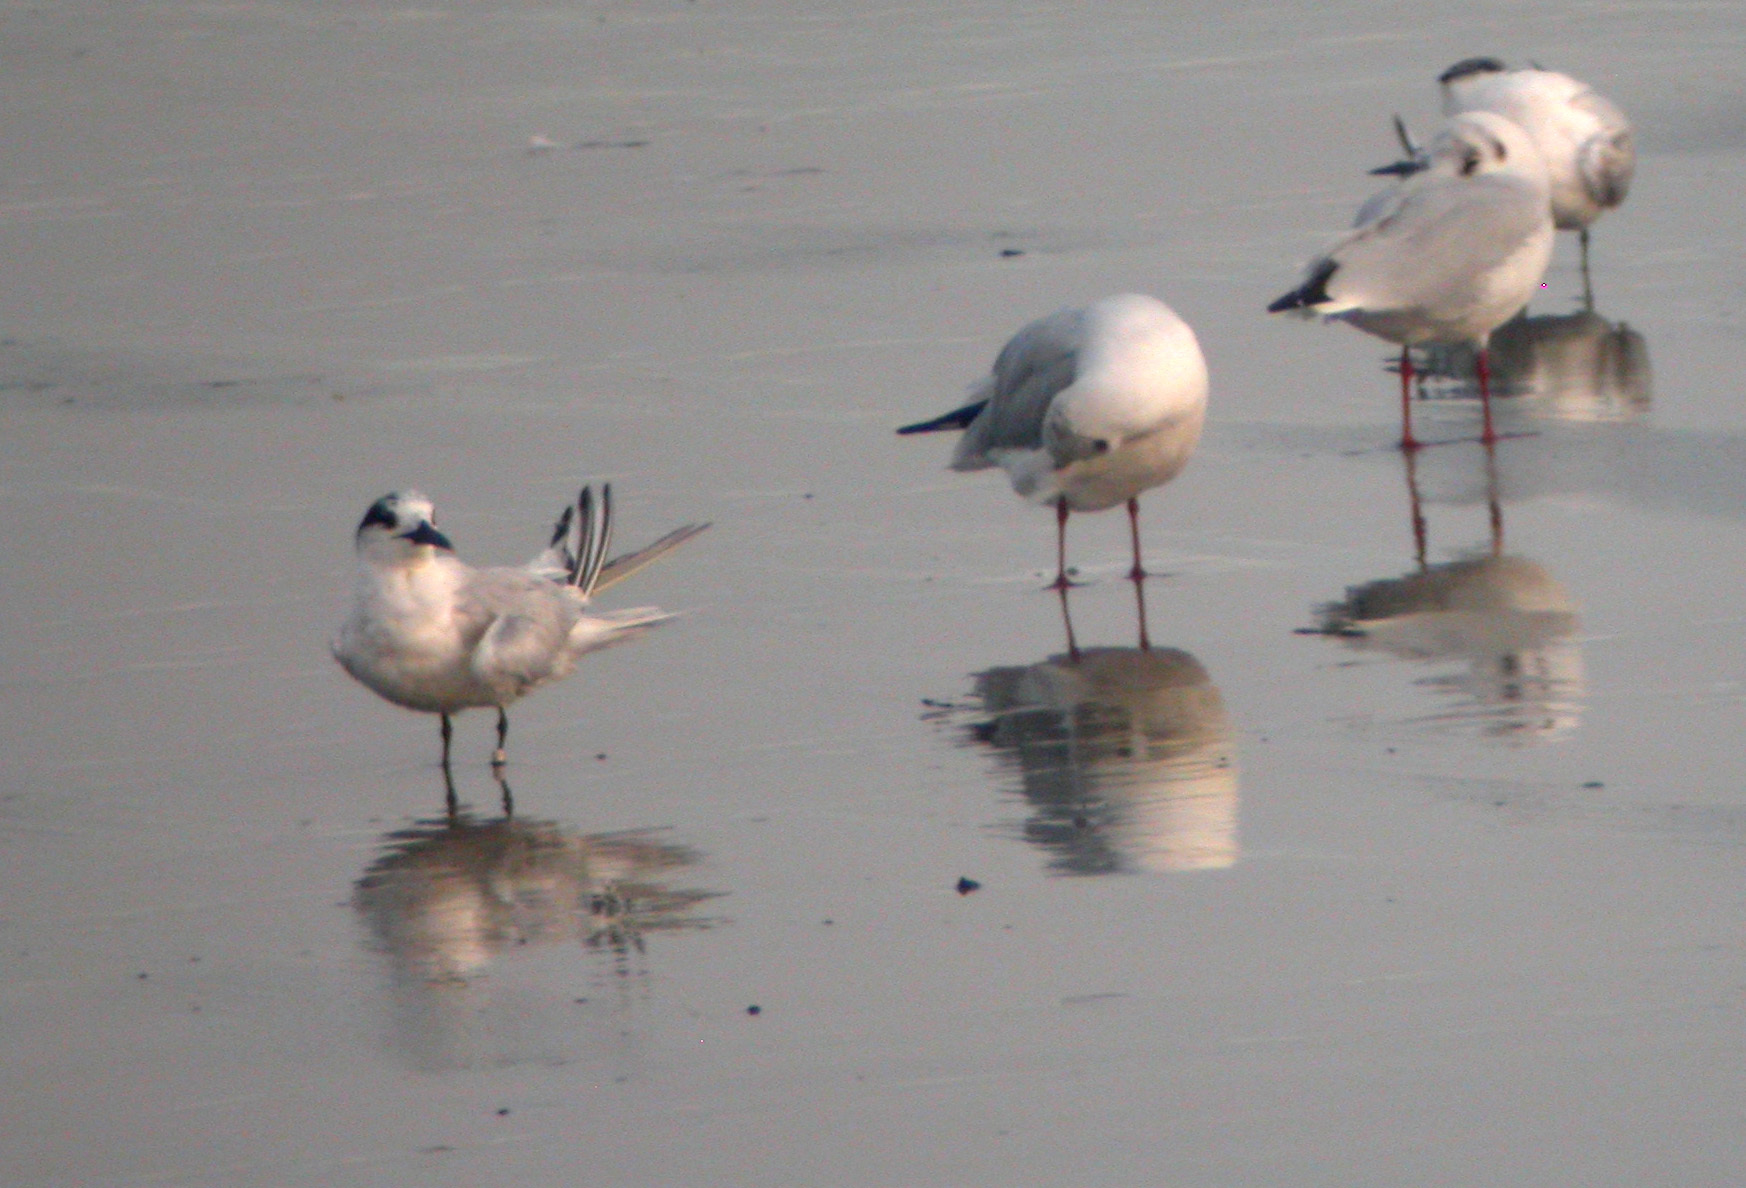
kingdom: Animalia
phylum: Chordata
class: Aves
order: Charadriiformes
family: Laridae
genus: Thalasseus
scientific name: Thalasseus sandvicensis
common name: Sandwich tern
